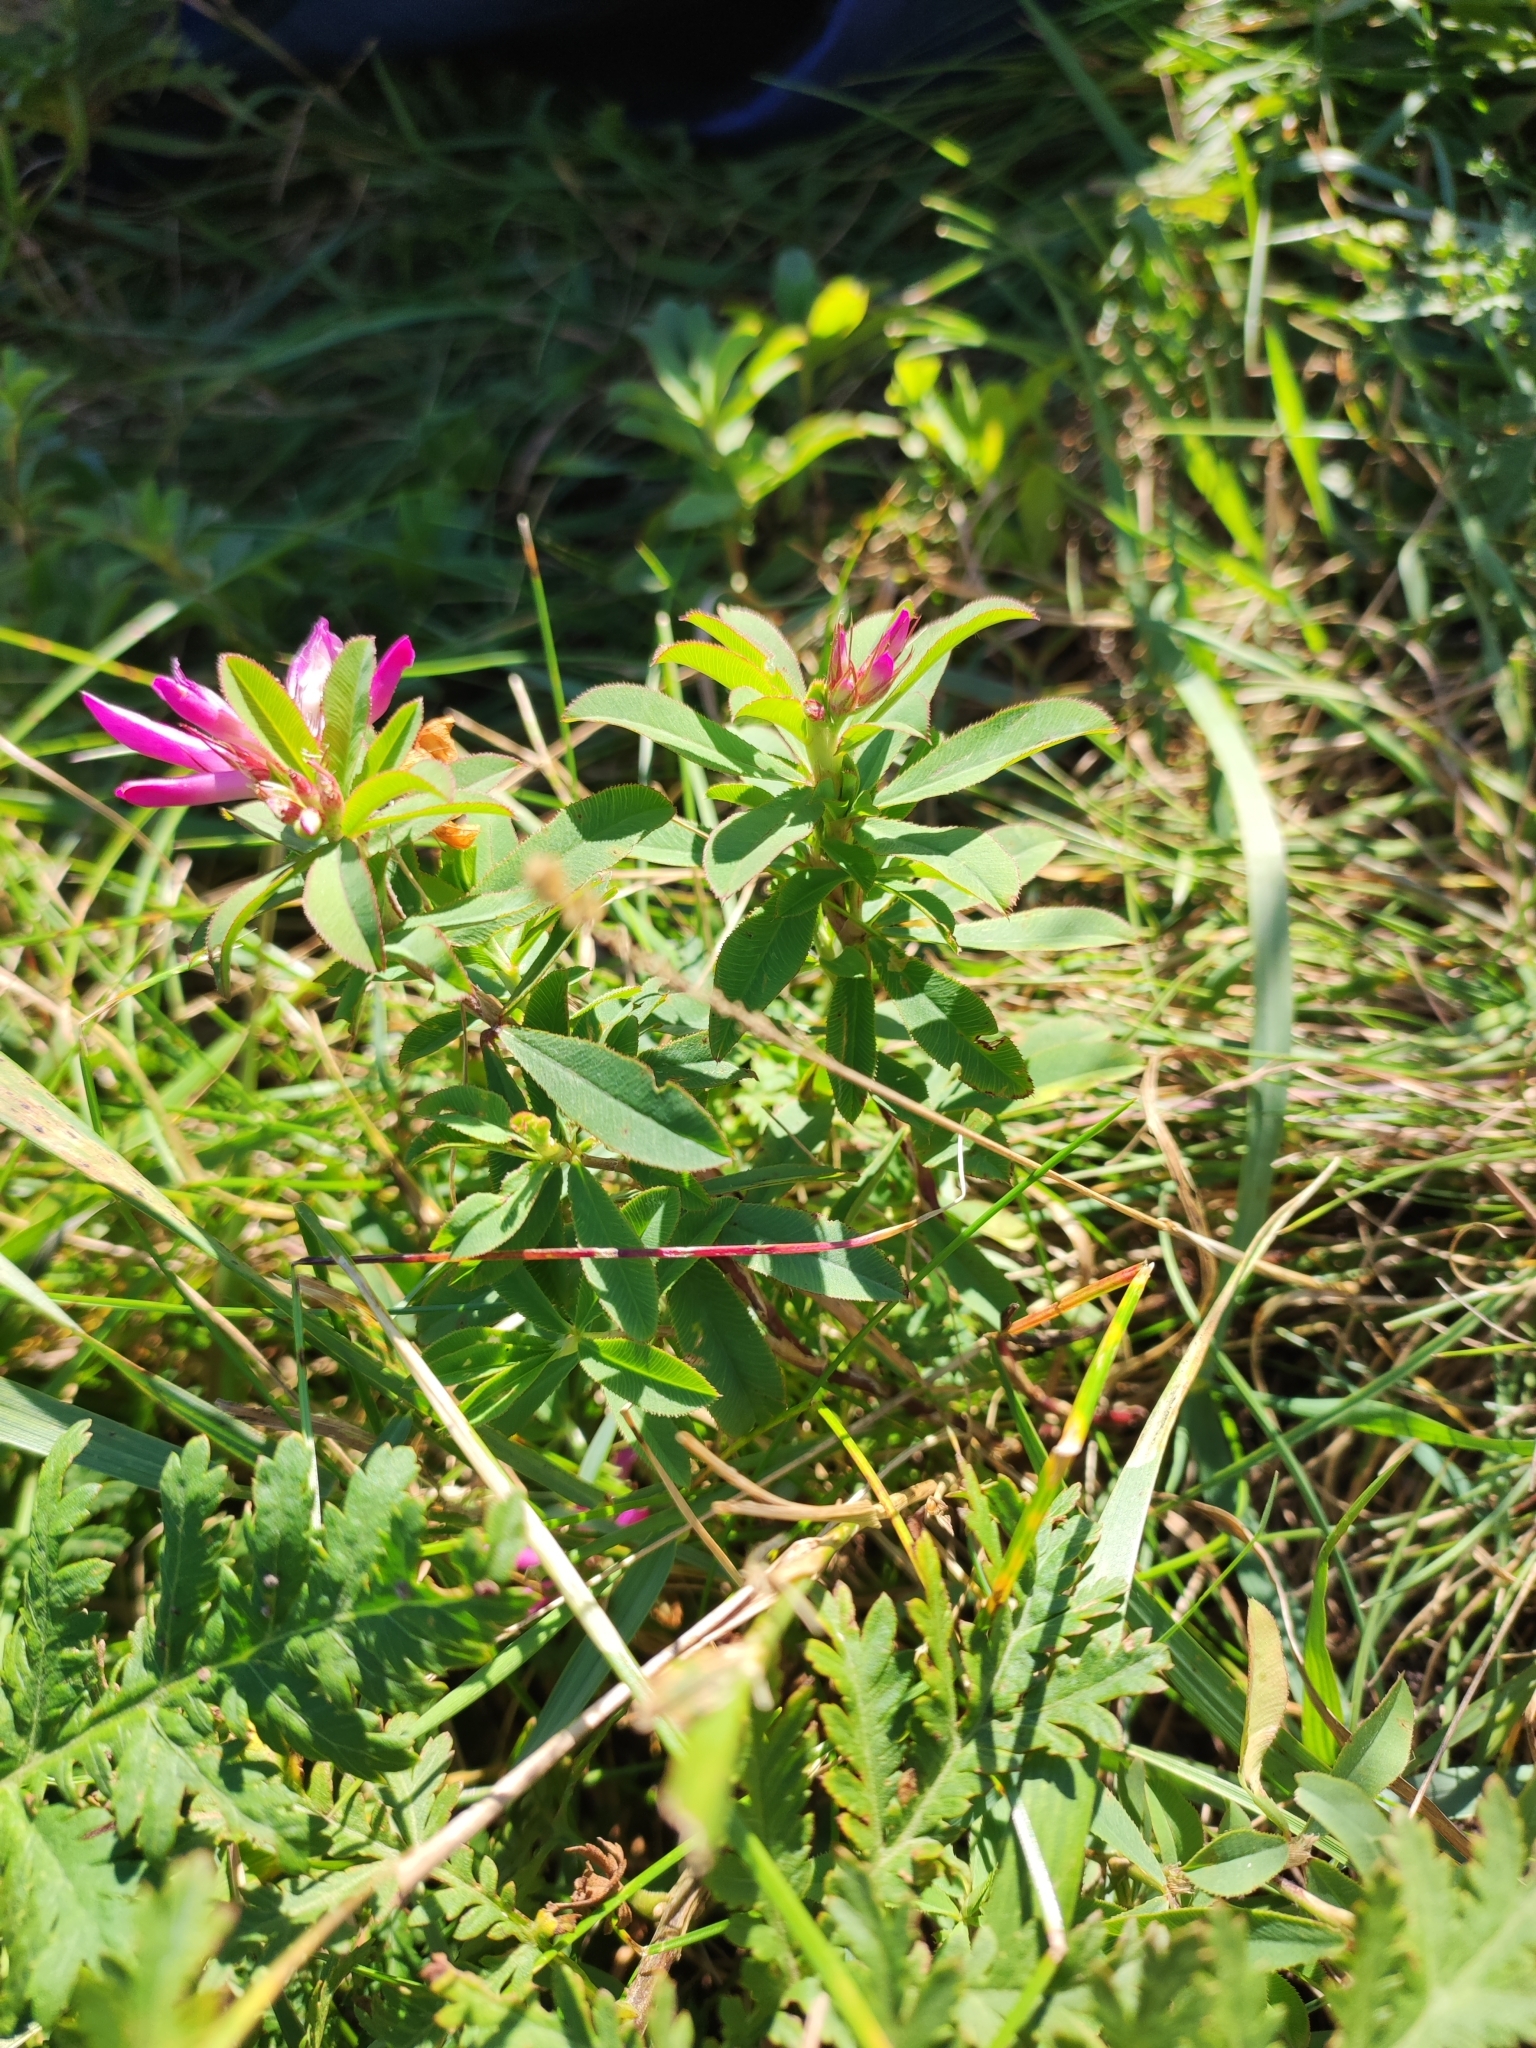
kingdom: Plantae
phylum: Tracheophyta
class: Magnoliopsida
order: Fabales
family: Fabaceae
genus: Trifolium
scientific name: Trifolium lupinaster
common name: Lupine clover
